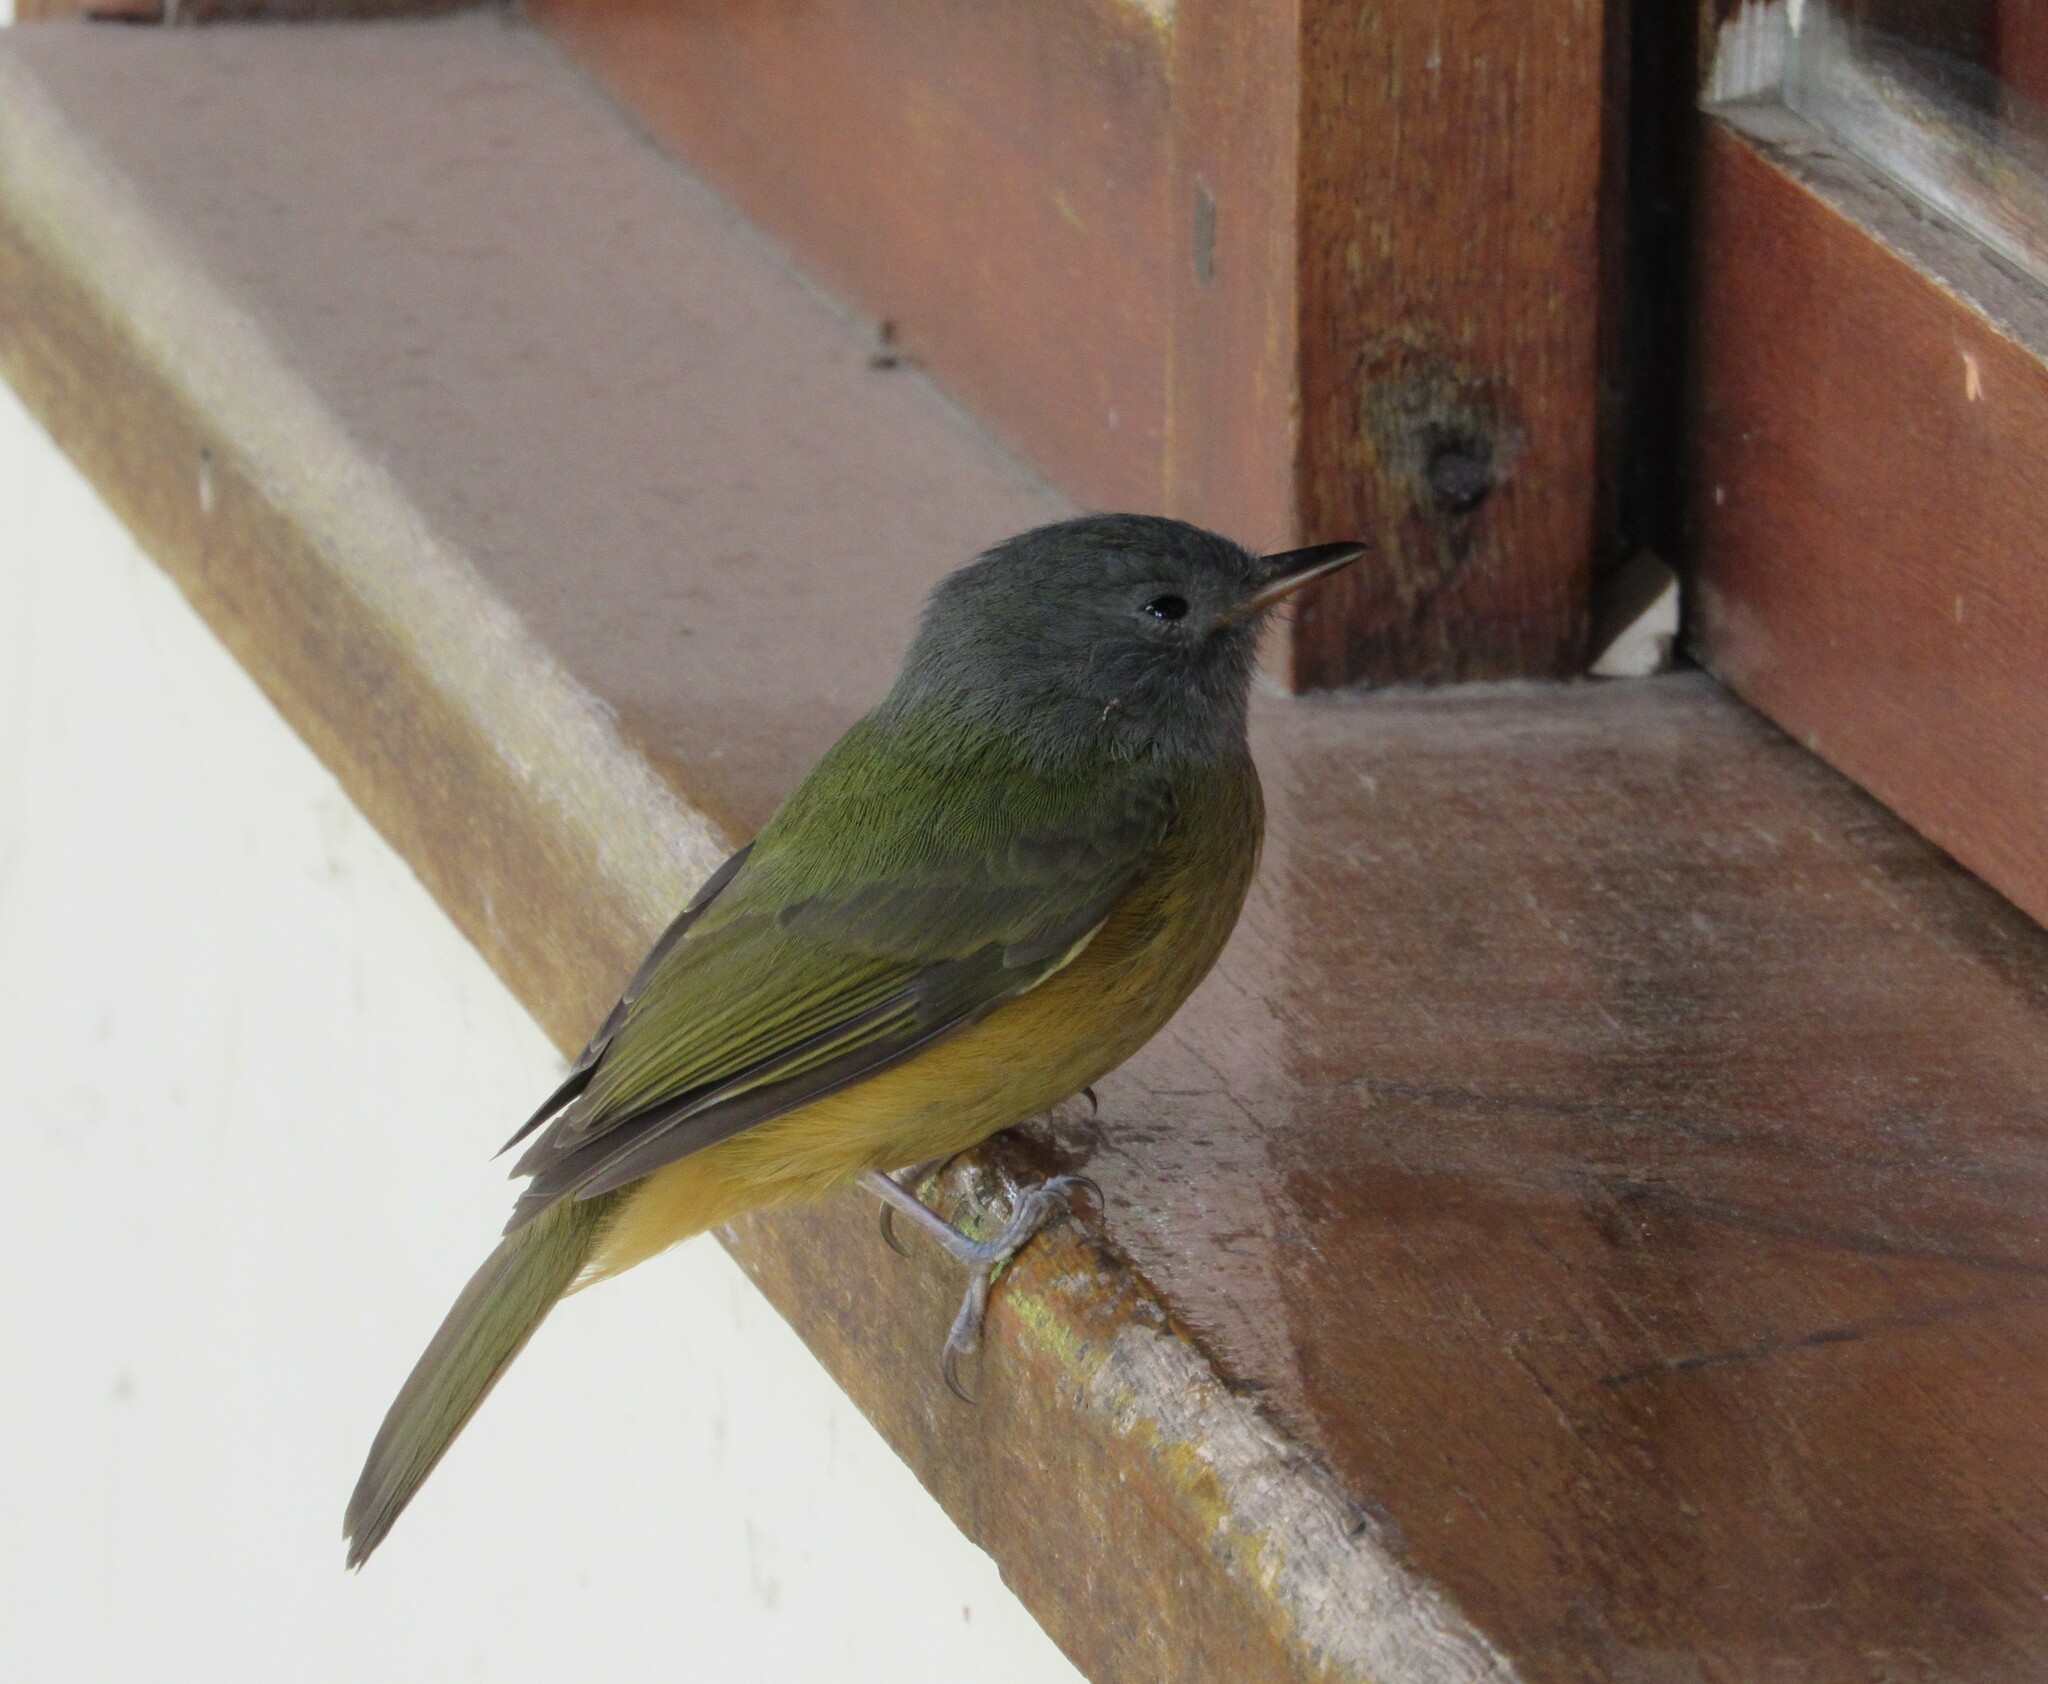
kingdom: Animalia
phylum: Chordata
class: Aves
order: Passeriformes
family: Tyrannidae
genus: Mionectes
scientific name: Mionectes rufiventris
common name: Grey-hooded flycatcher
